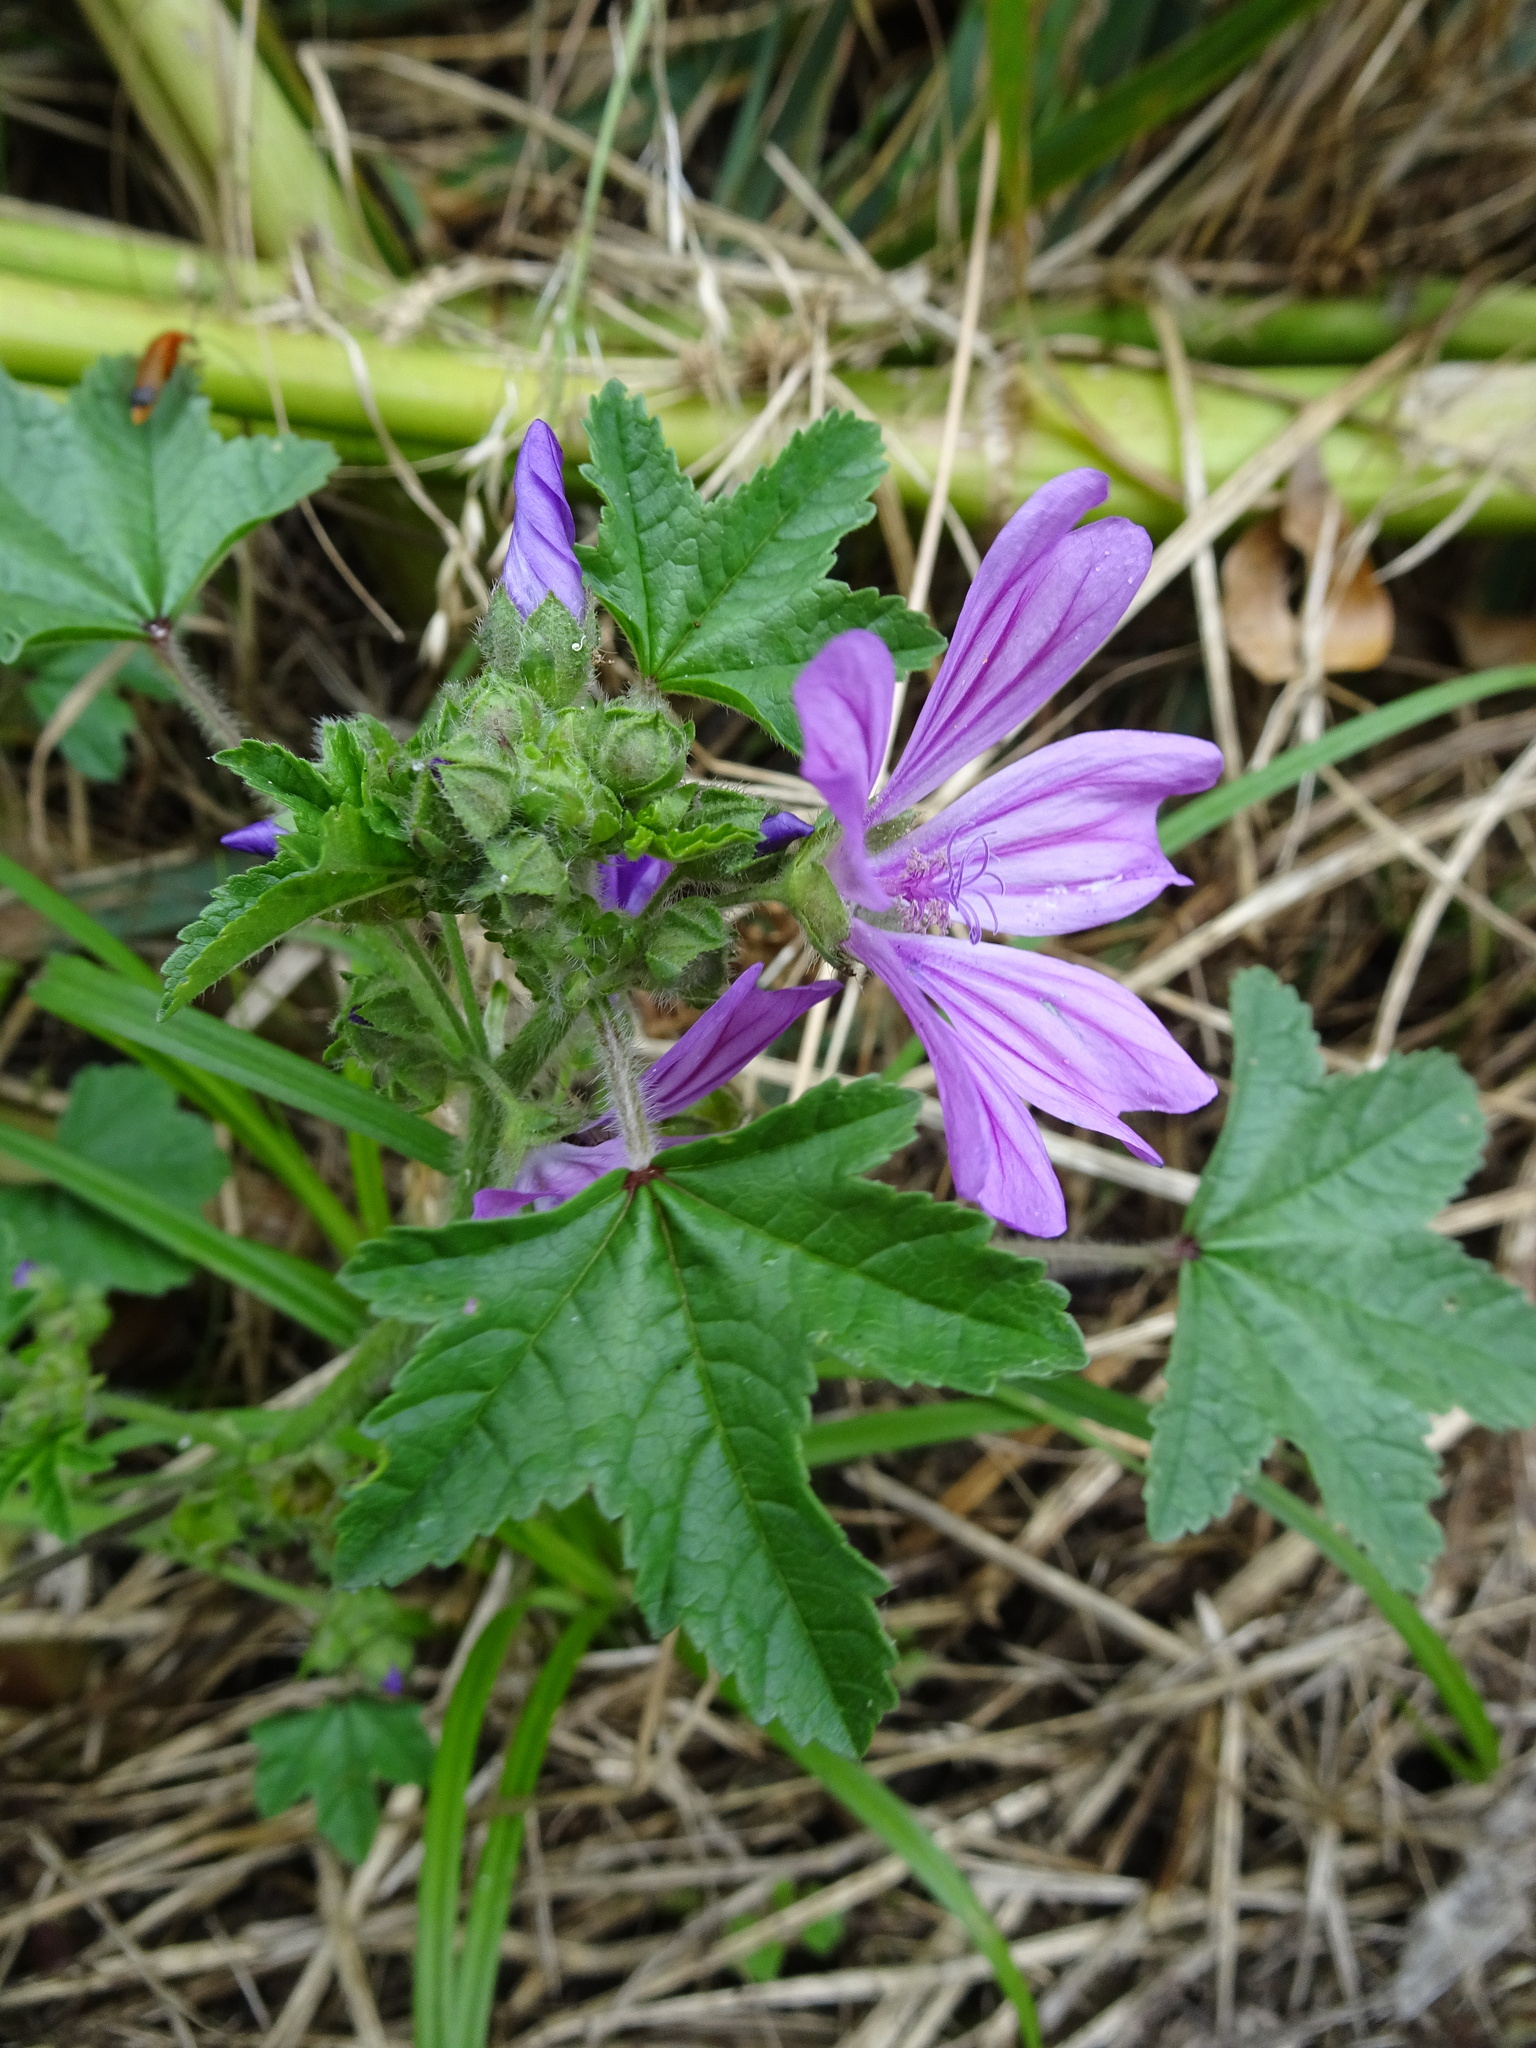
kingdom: Plantae
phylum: Tracheophyta
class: Magnoliopsida
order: Malvales
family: Malvaceae
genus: Malva
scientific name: Malva sylvestris
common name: Common mallow
